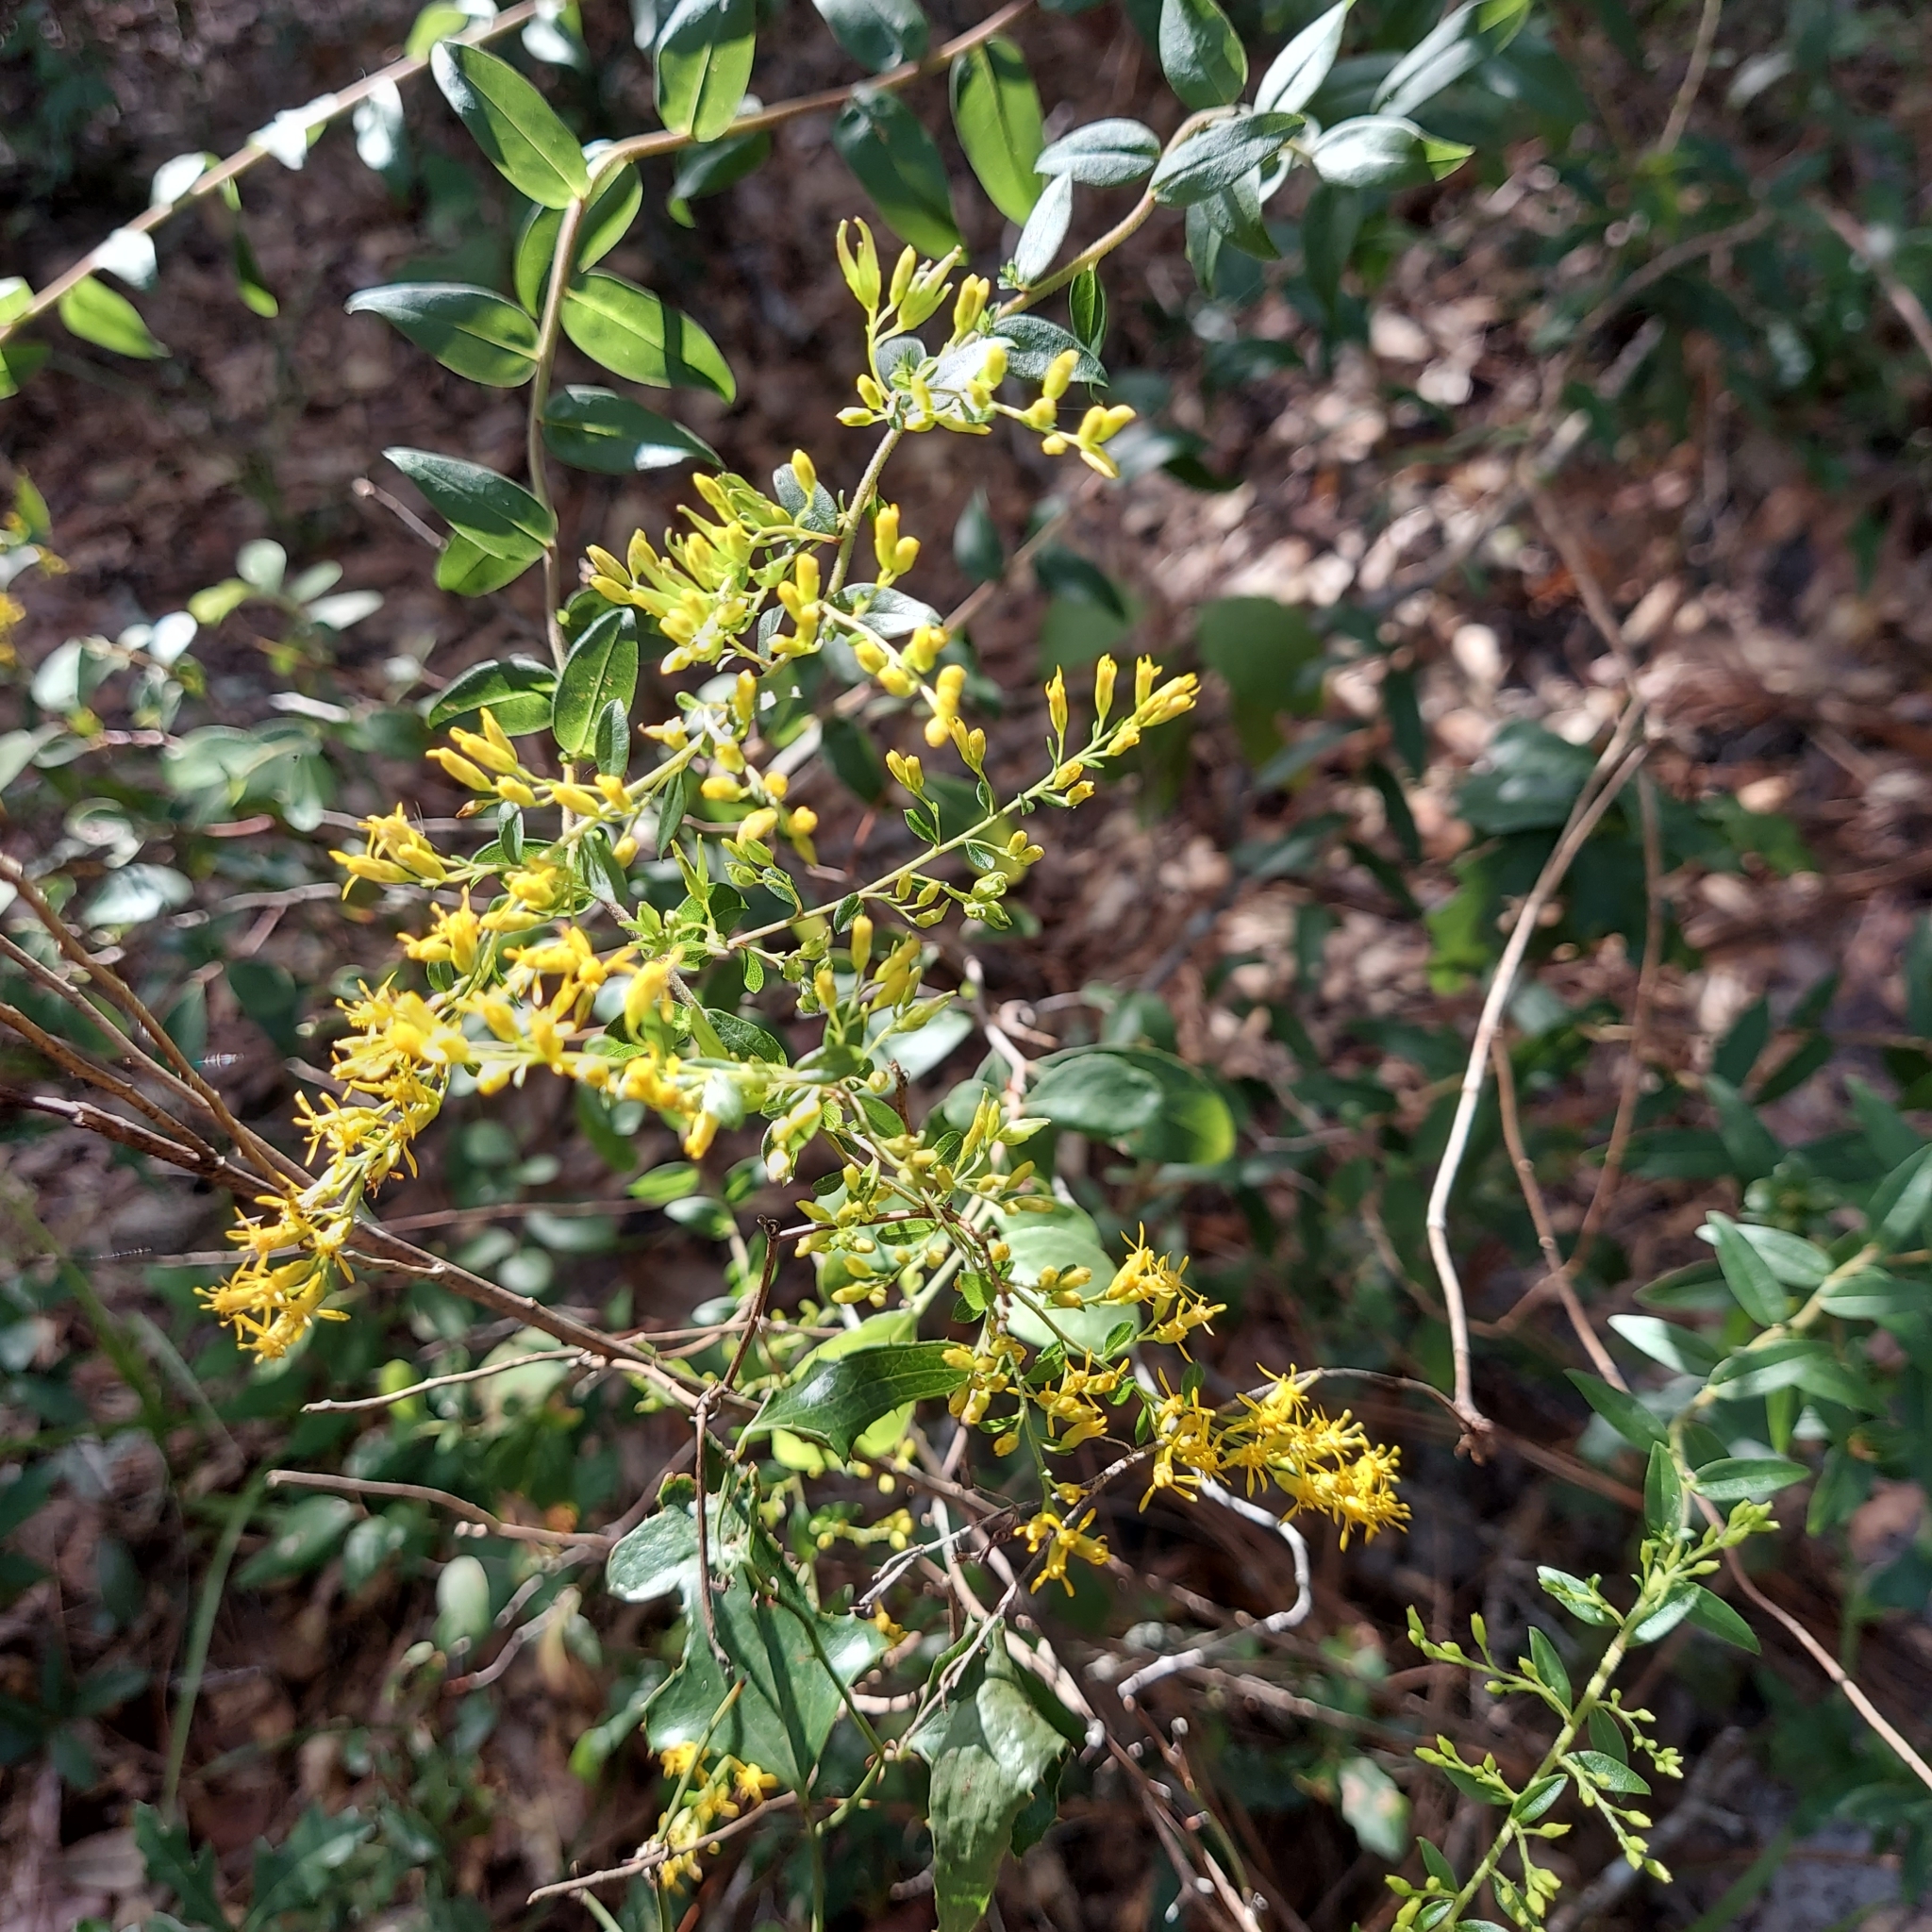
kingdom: Plantae
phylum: Tracheophyta
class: Magnoliopsida
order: Asterales
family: Asteraceae
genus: Solidago
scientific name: Solidago chapmanii
